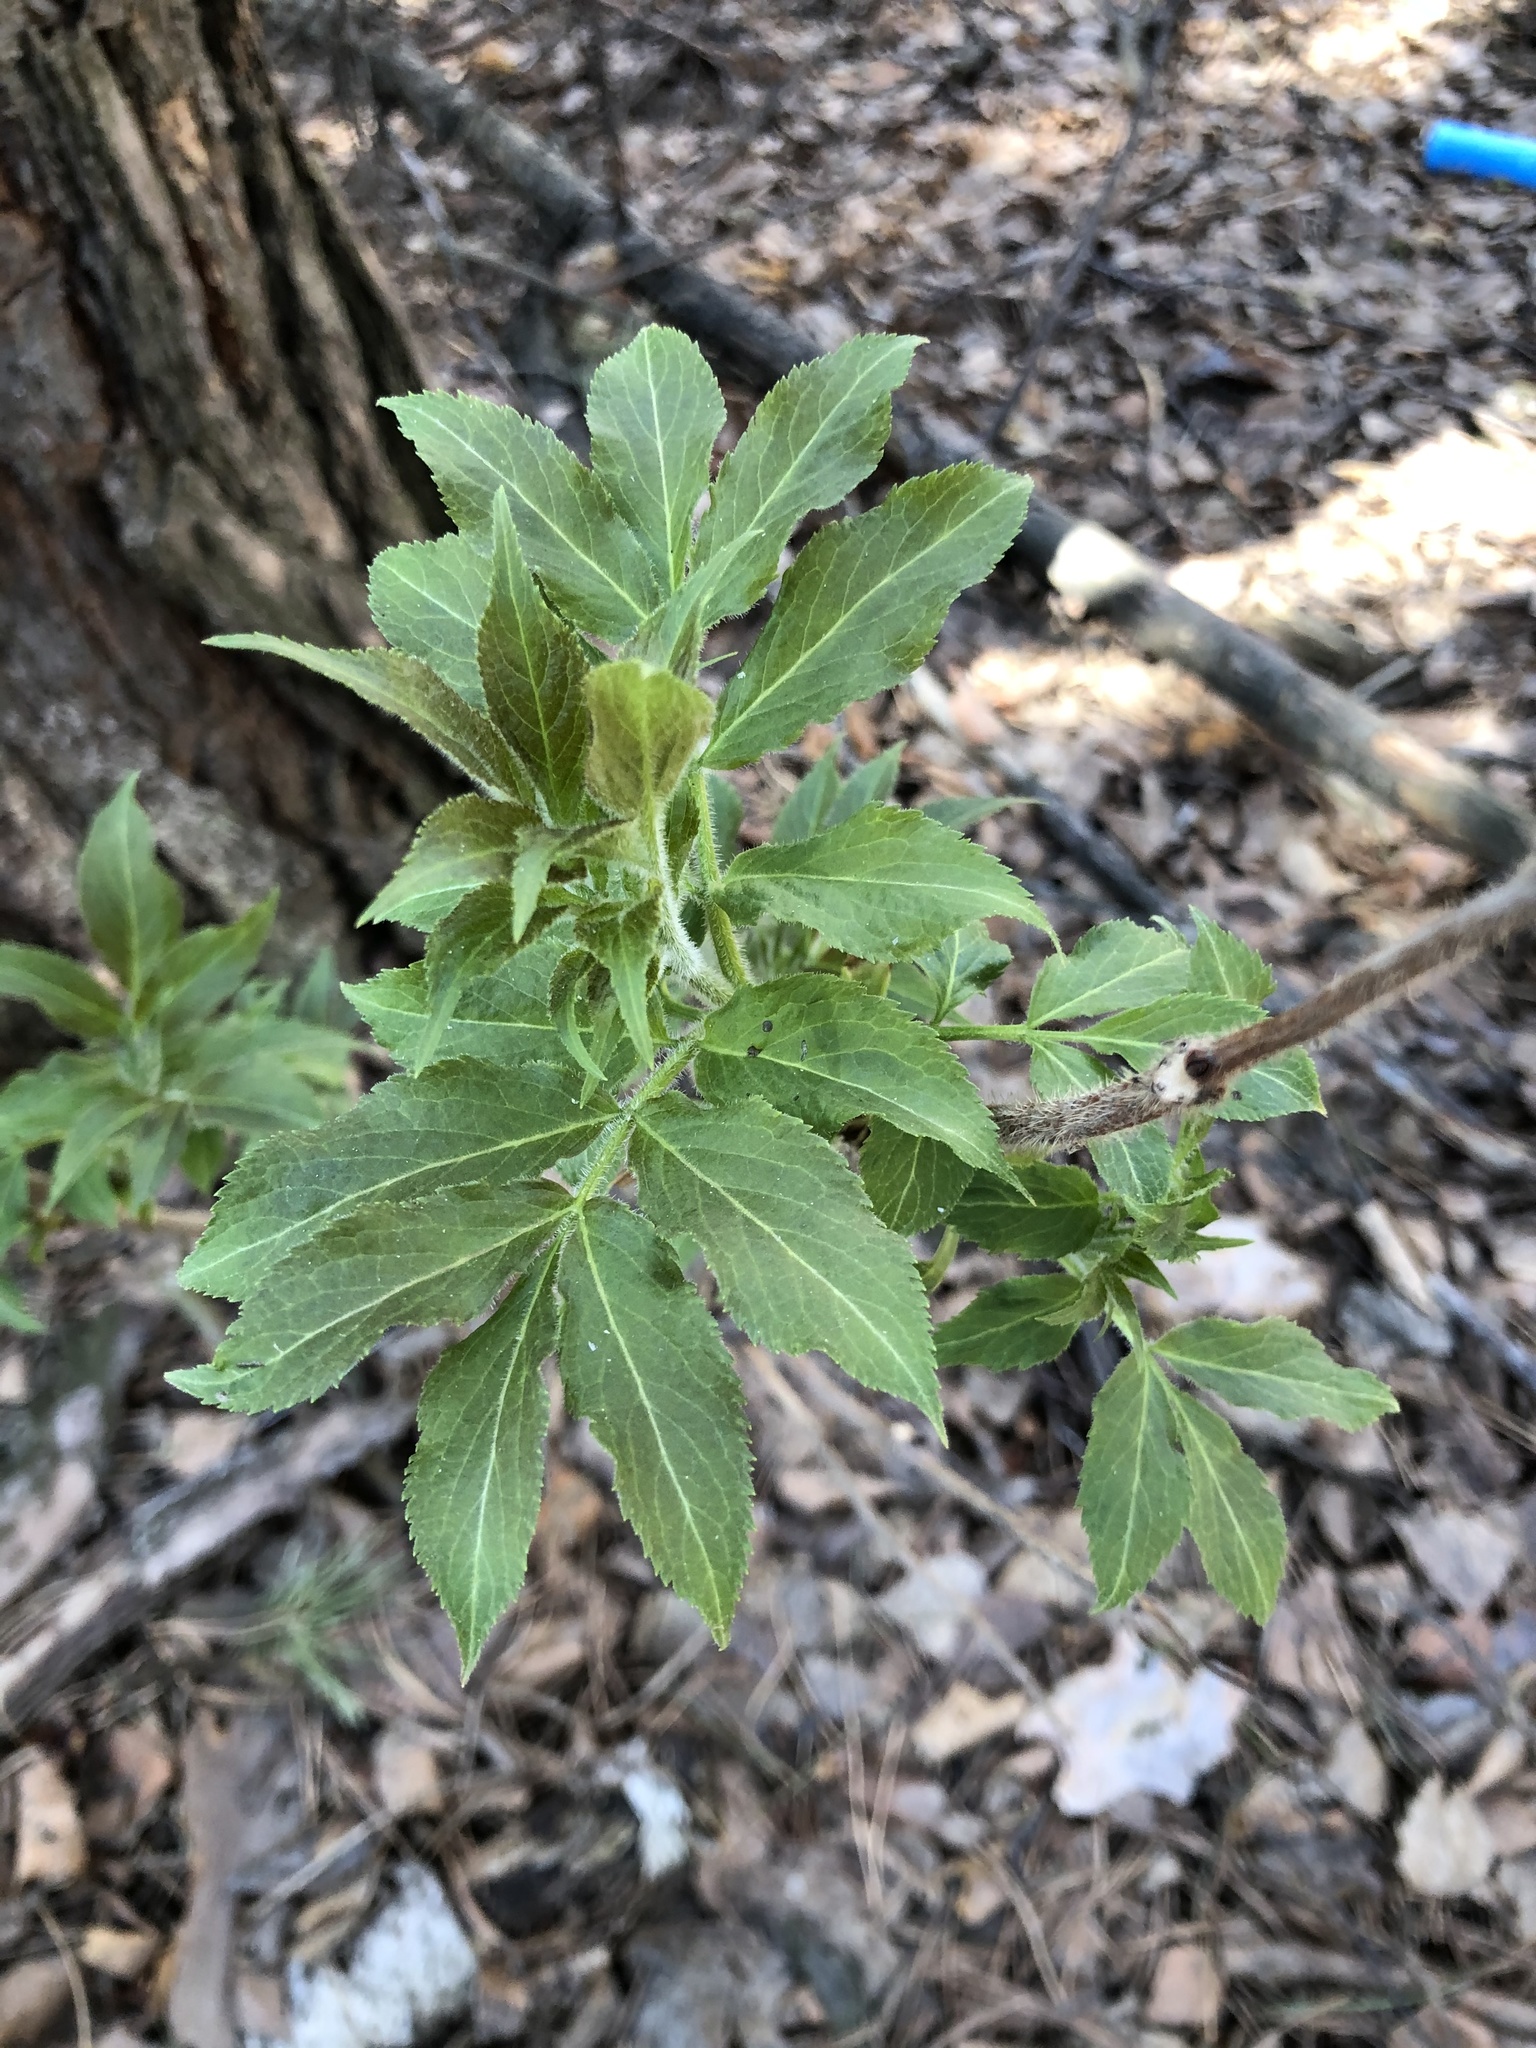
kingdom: Plantae
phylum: Tracheophyta
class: Magnoliopsida
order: Dipsacales
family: Viburnaceae
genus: Sambucus
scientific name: Sambucus sibirica
